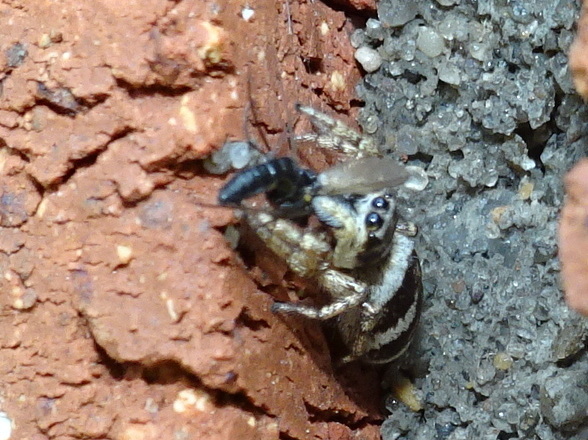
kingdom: Animalia
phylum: Arthropoda
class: Arachnida
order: Araneae
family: Salticidae
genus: Salticus
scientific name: Salticus scenicus
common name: Zebra jumper
